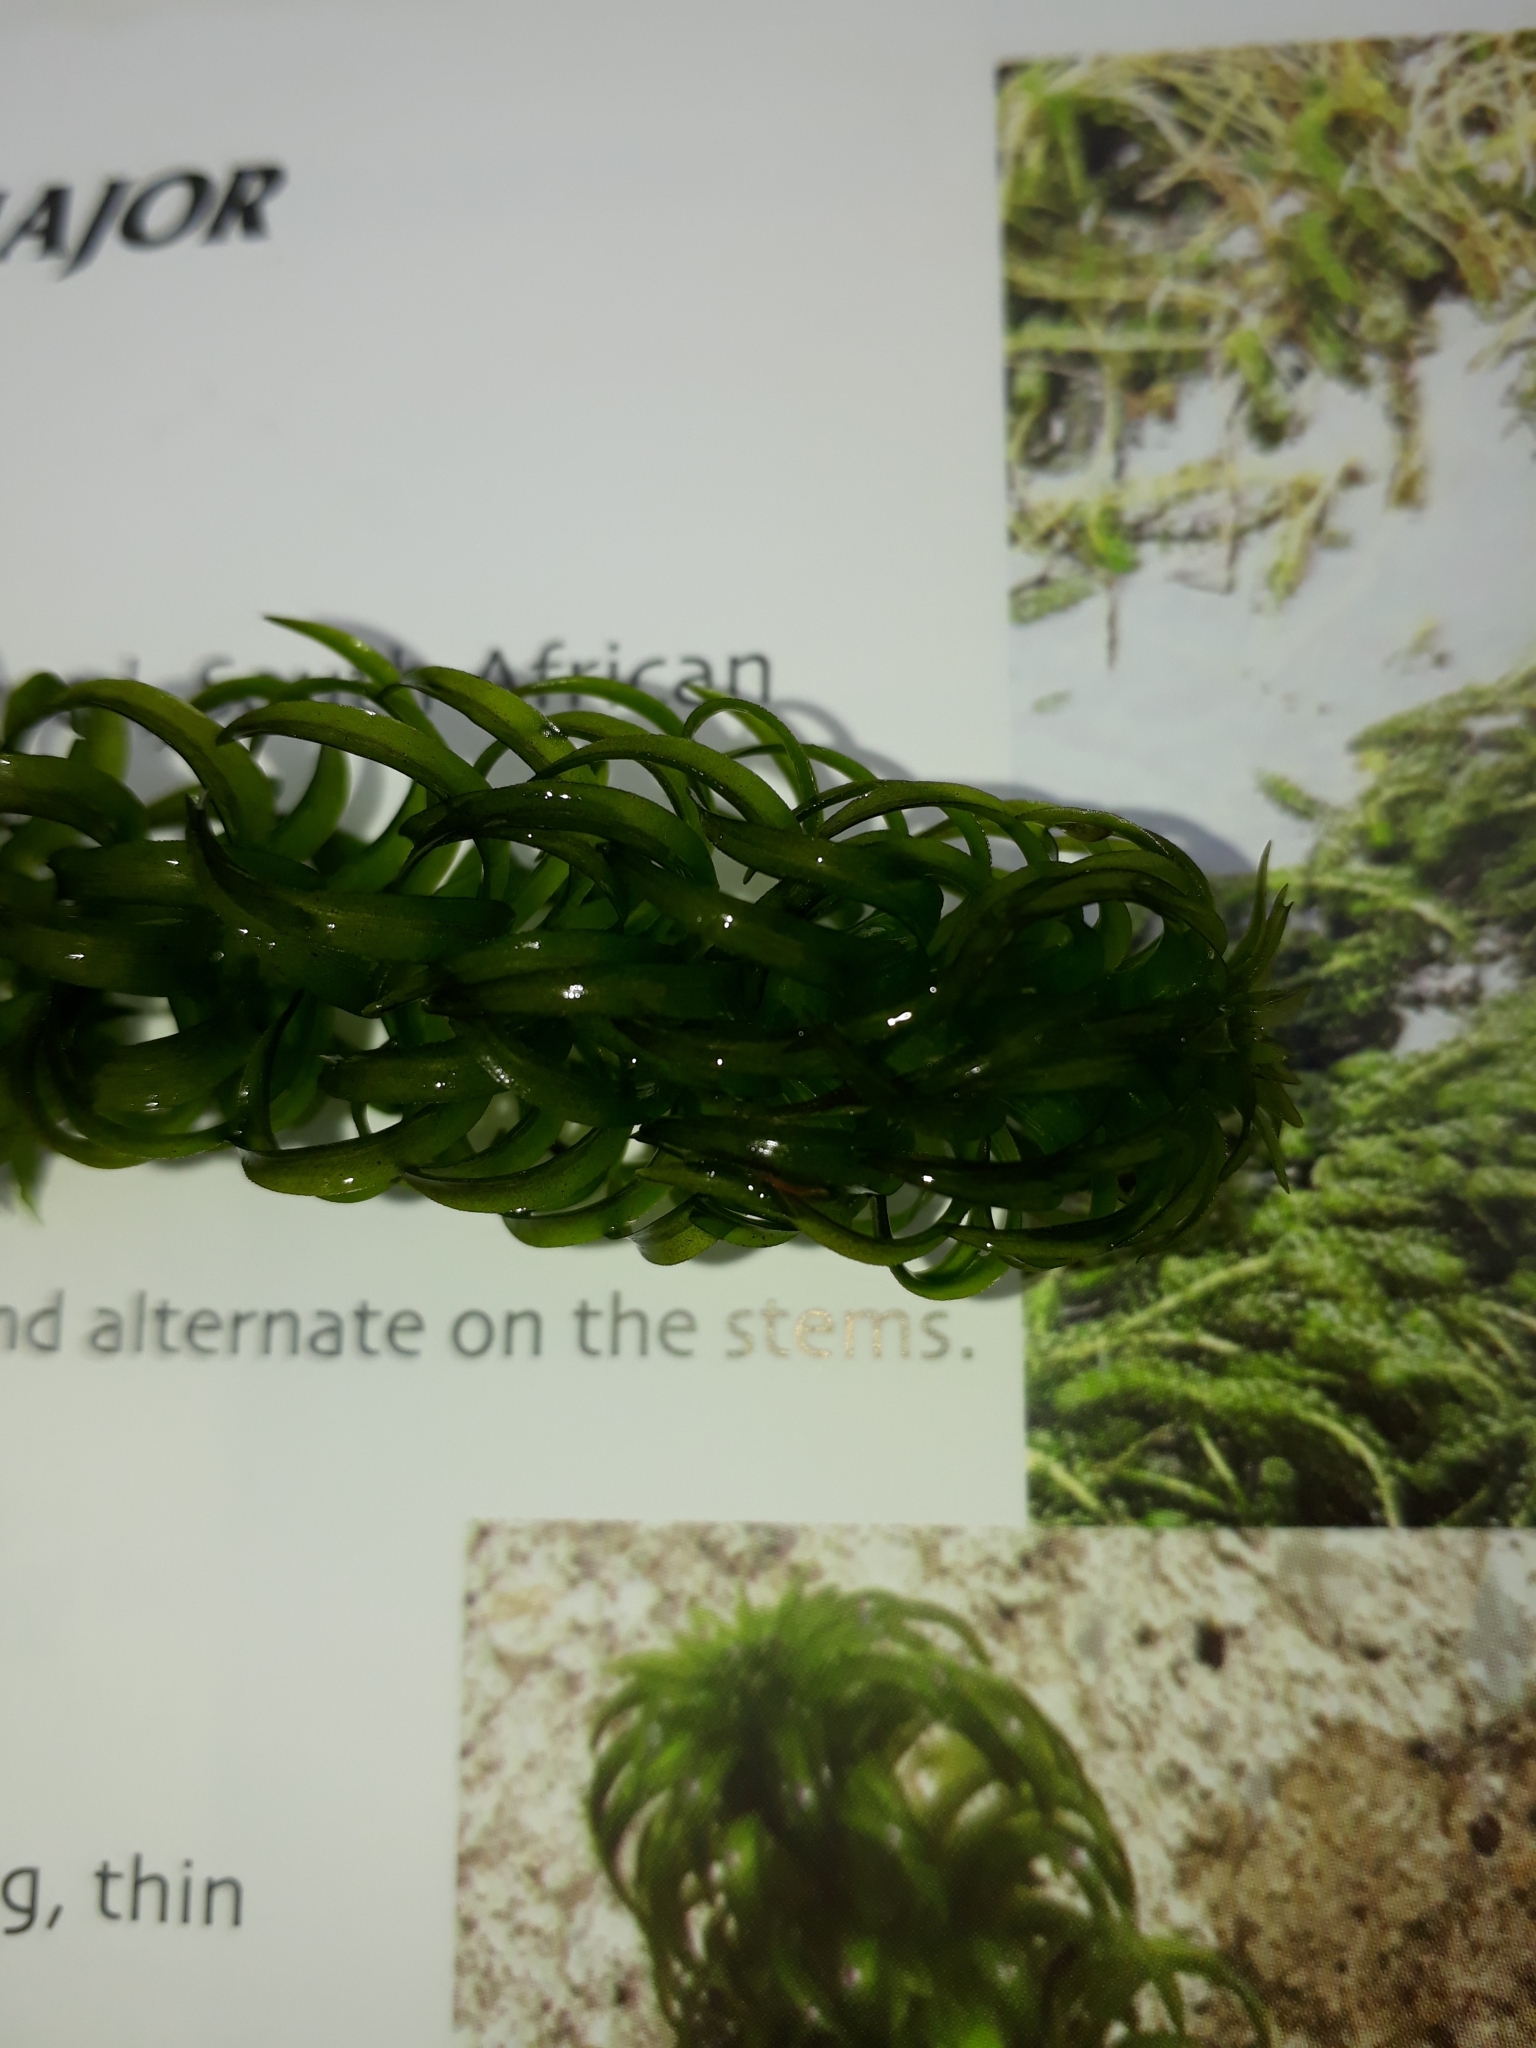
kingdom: Plantae
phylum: Tracheophyta
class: Liliopsida
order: Alismatales
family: Hydrocharitaceae
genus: Lagarosiphon
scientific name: Lagarosiphon major
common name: Curly waterweed
